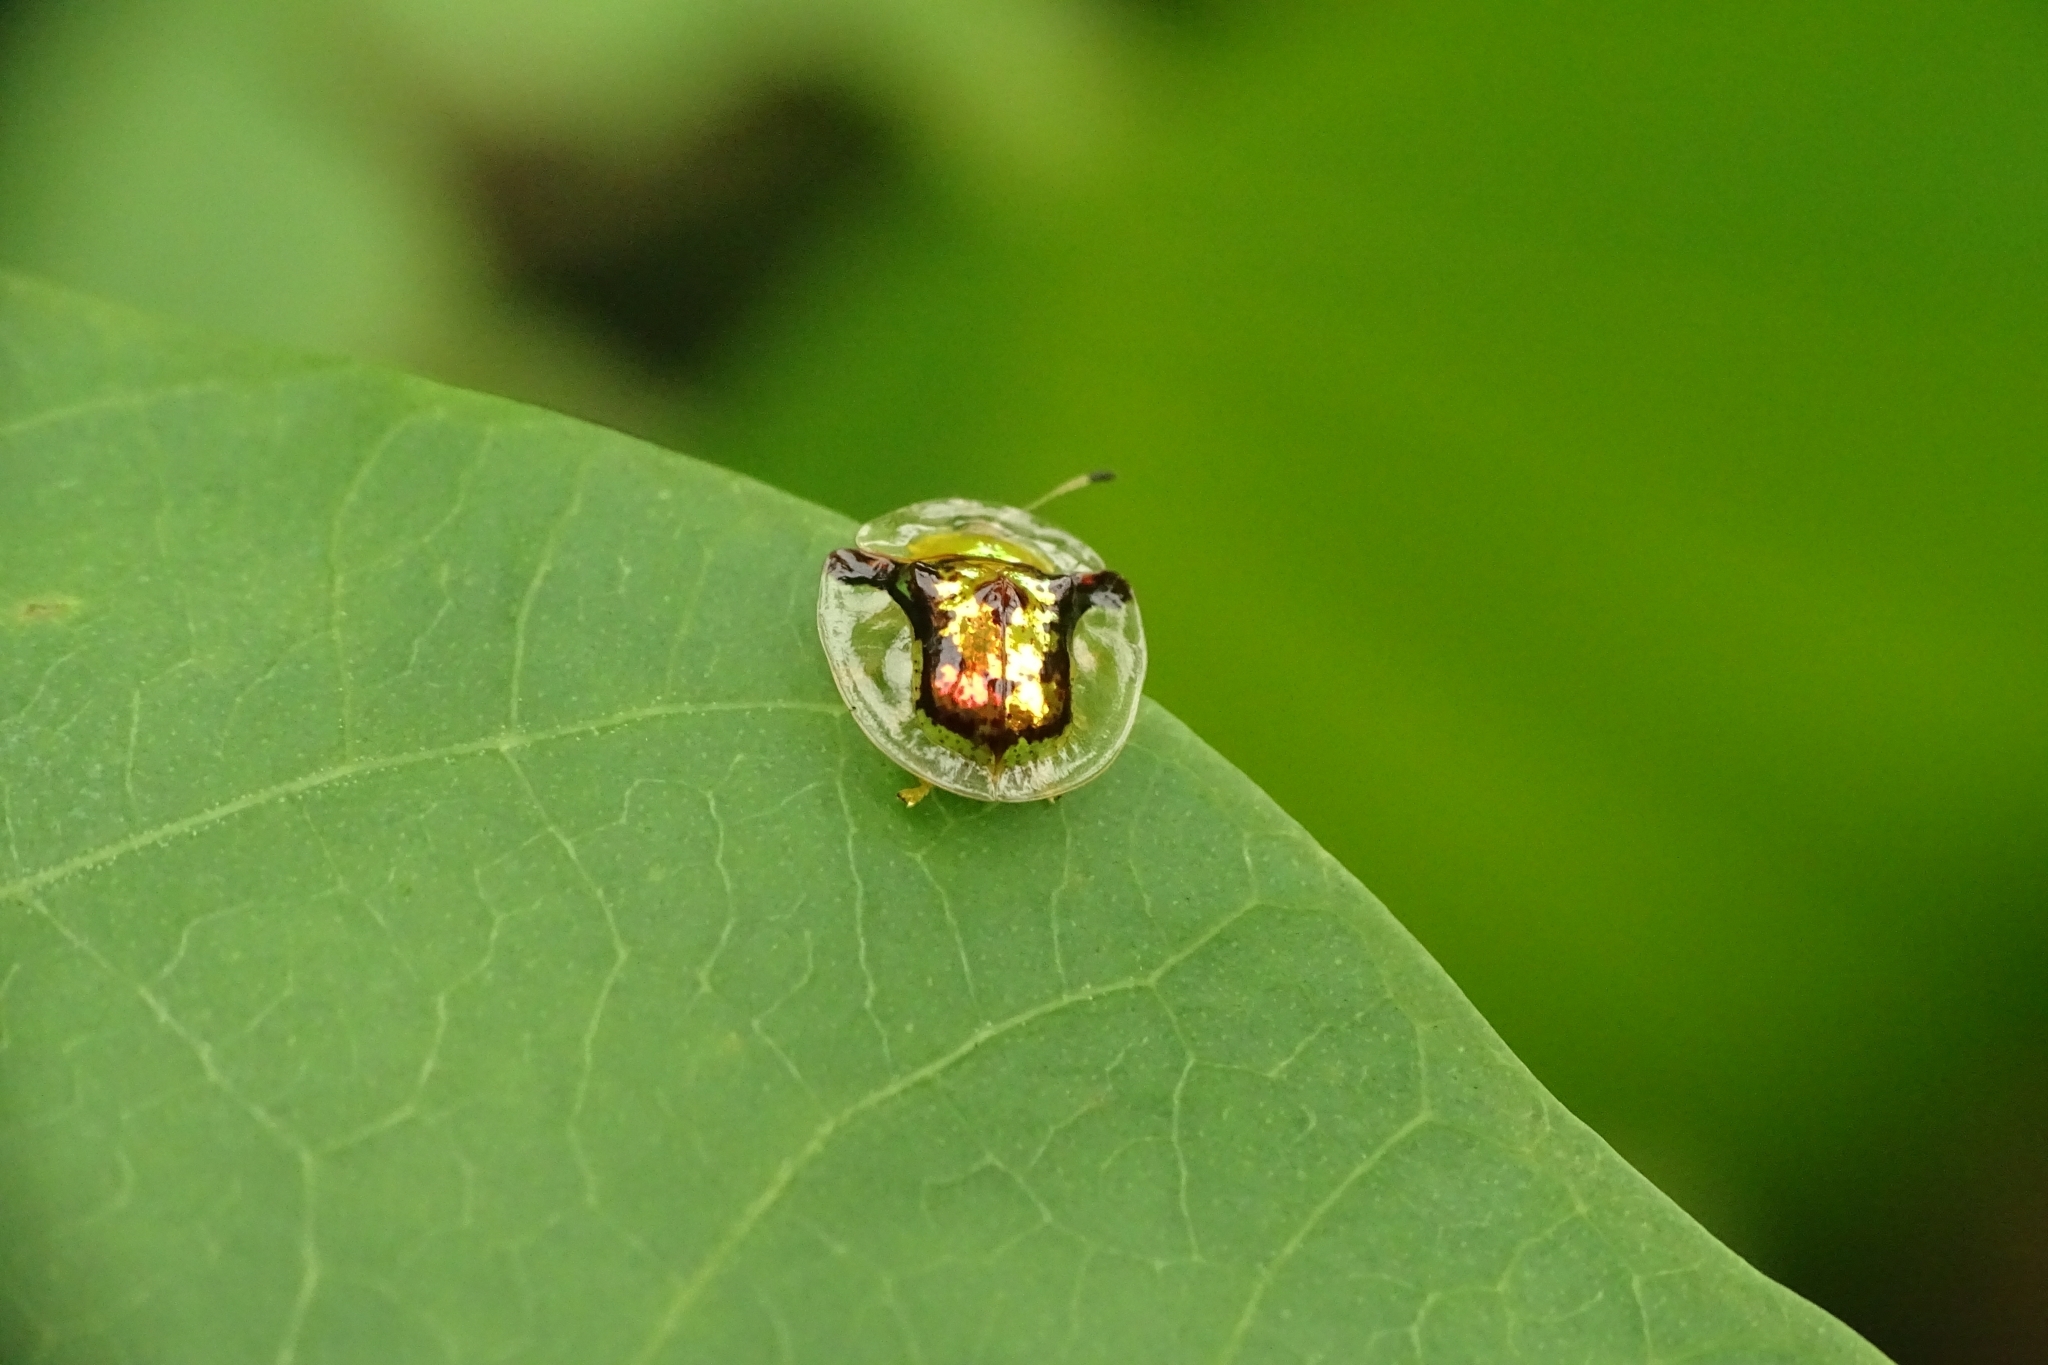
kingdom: Animalia
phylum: Arthropoda
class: Insecta
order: Coleoptera
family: Chrysomelidae
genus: Aspidimorpha
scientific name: Aspidimorpha furcata
